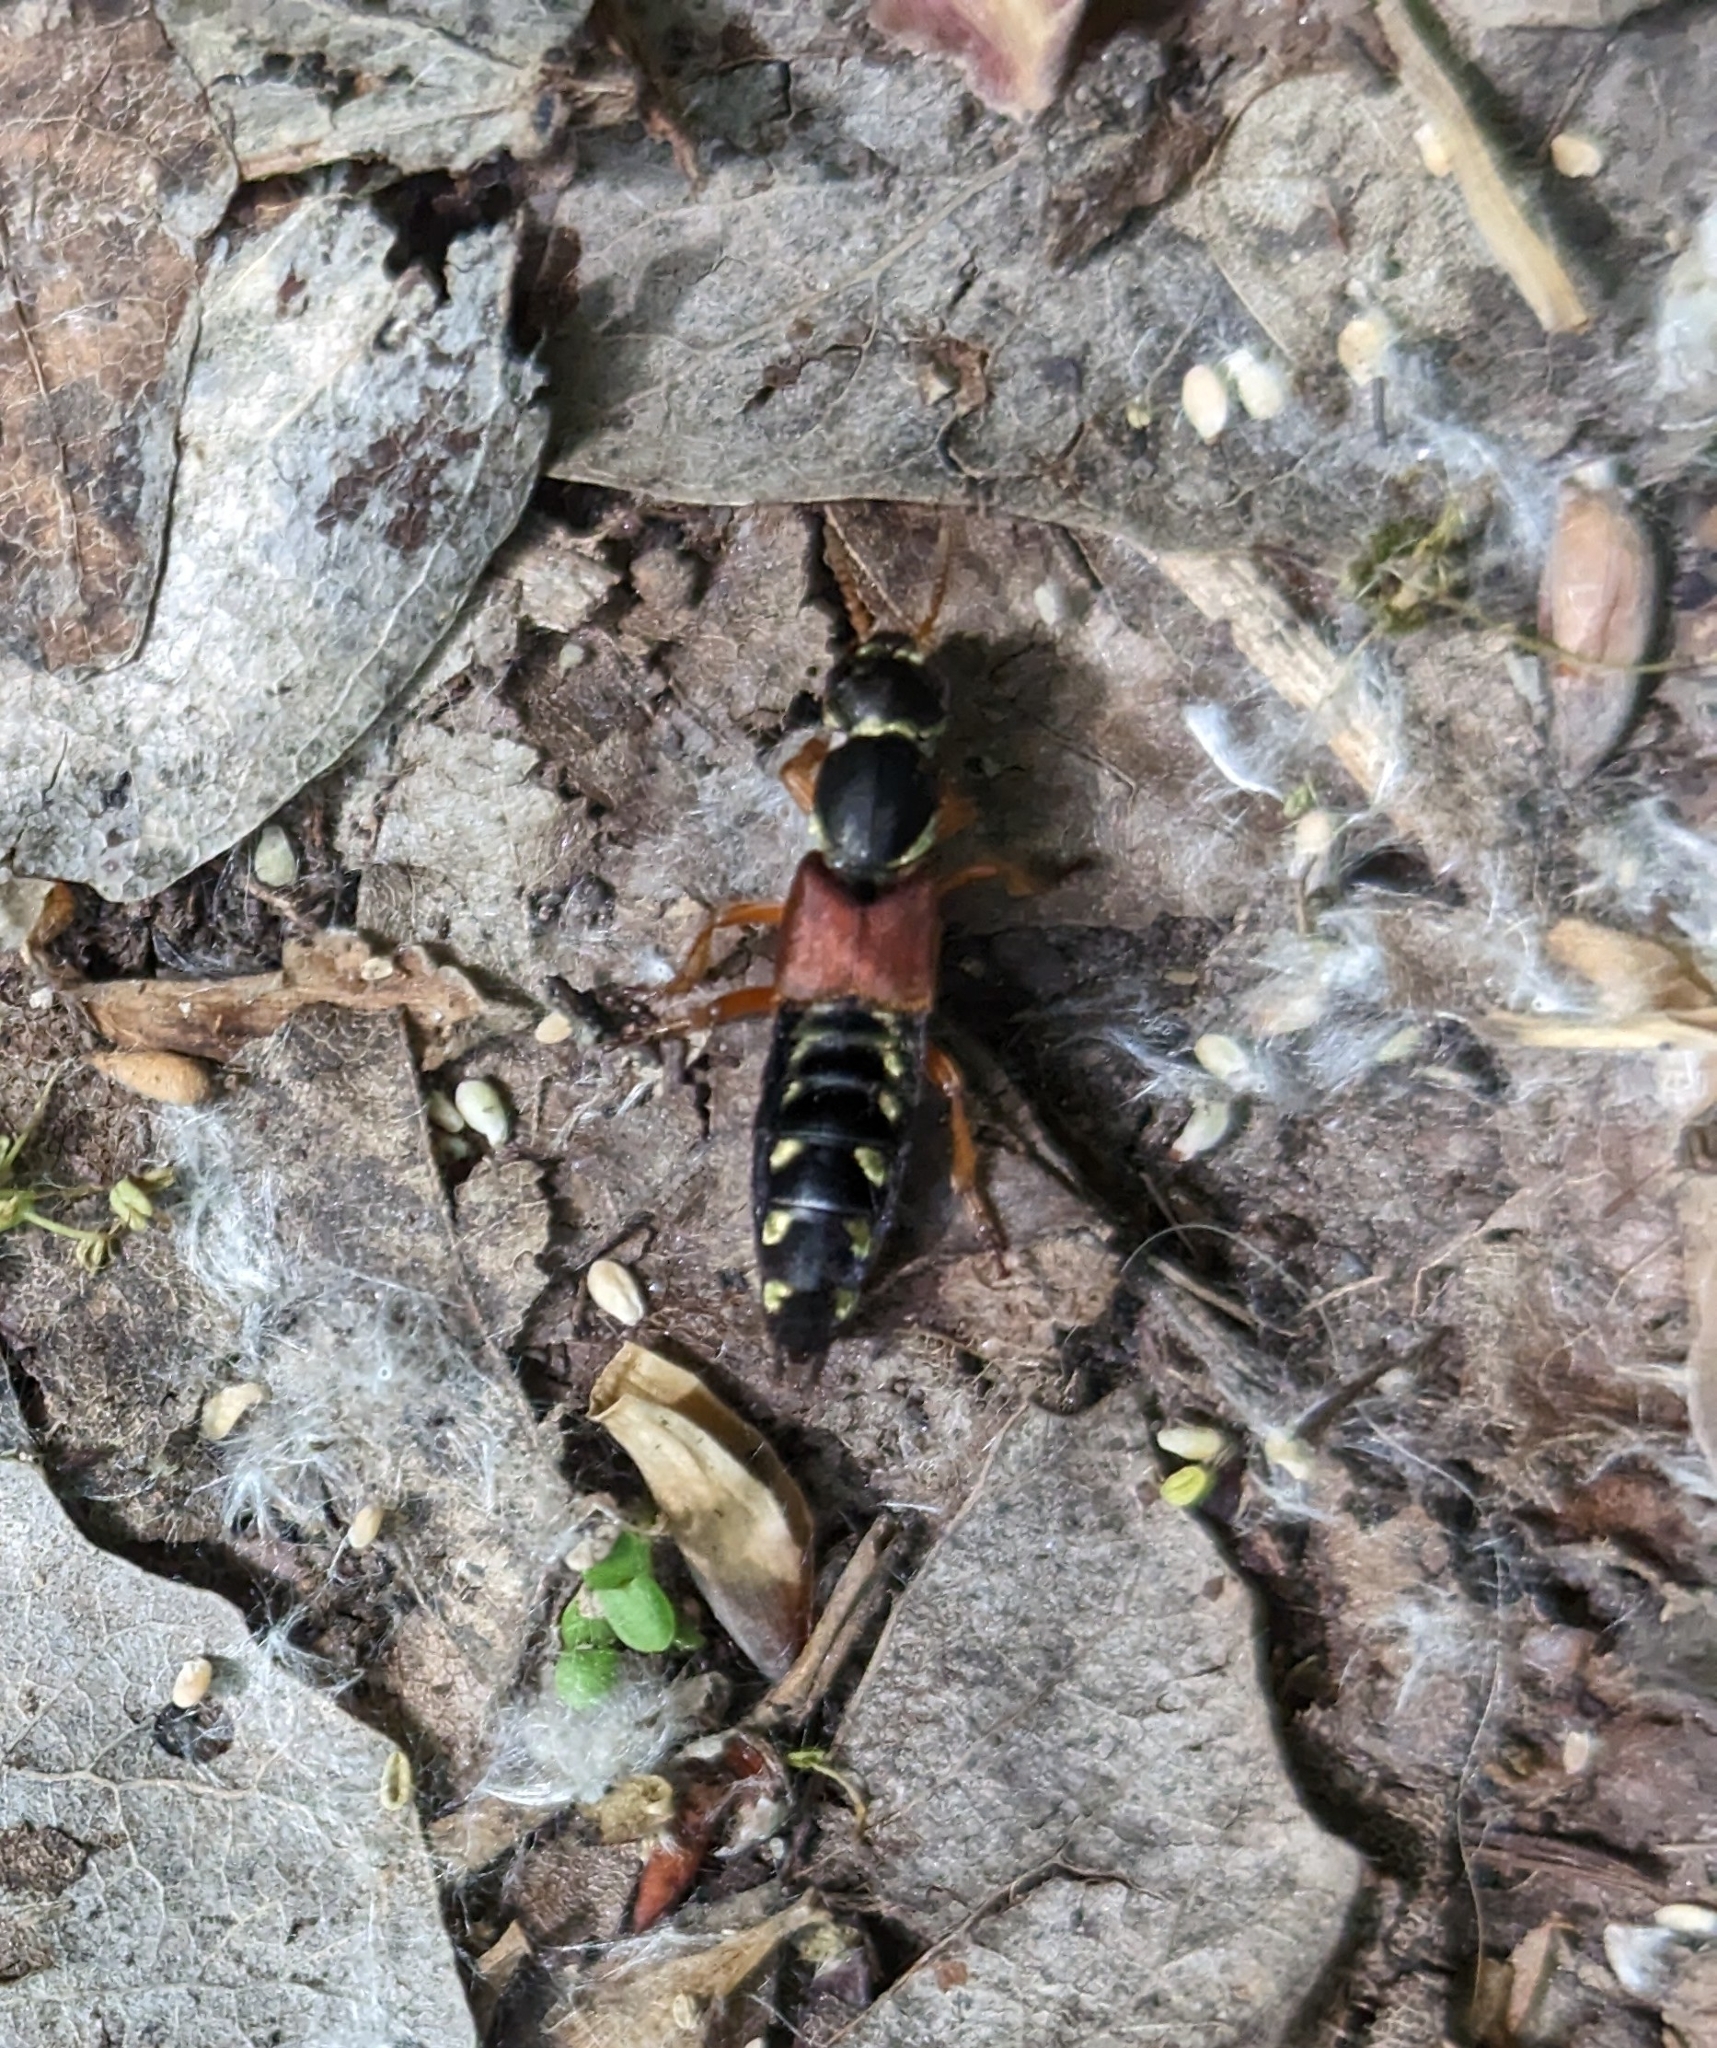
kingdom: Animalia
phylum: Arthropoda
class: Insecta
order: Coleoptera
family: Staphylinidae
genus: Staphylinus
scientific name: Staphylinus caesareus
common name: Staph beetle
